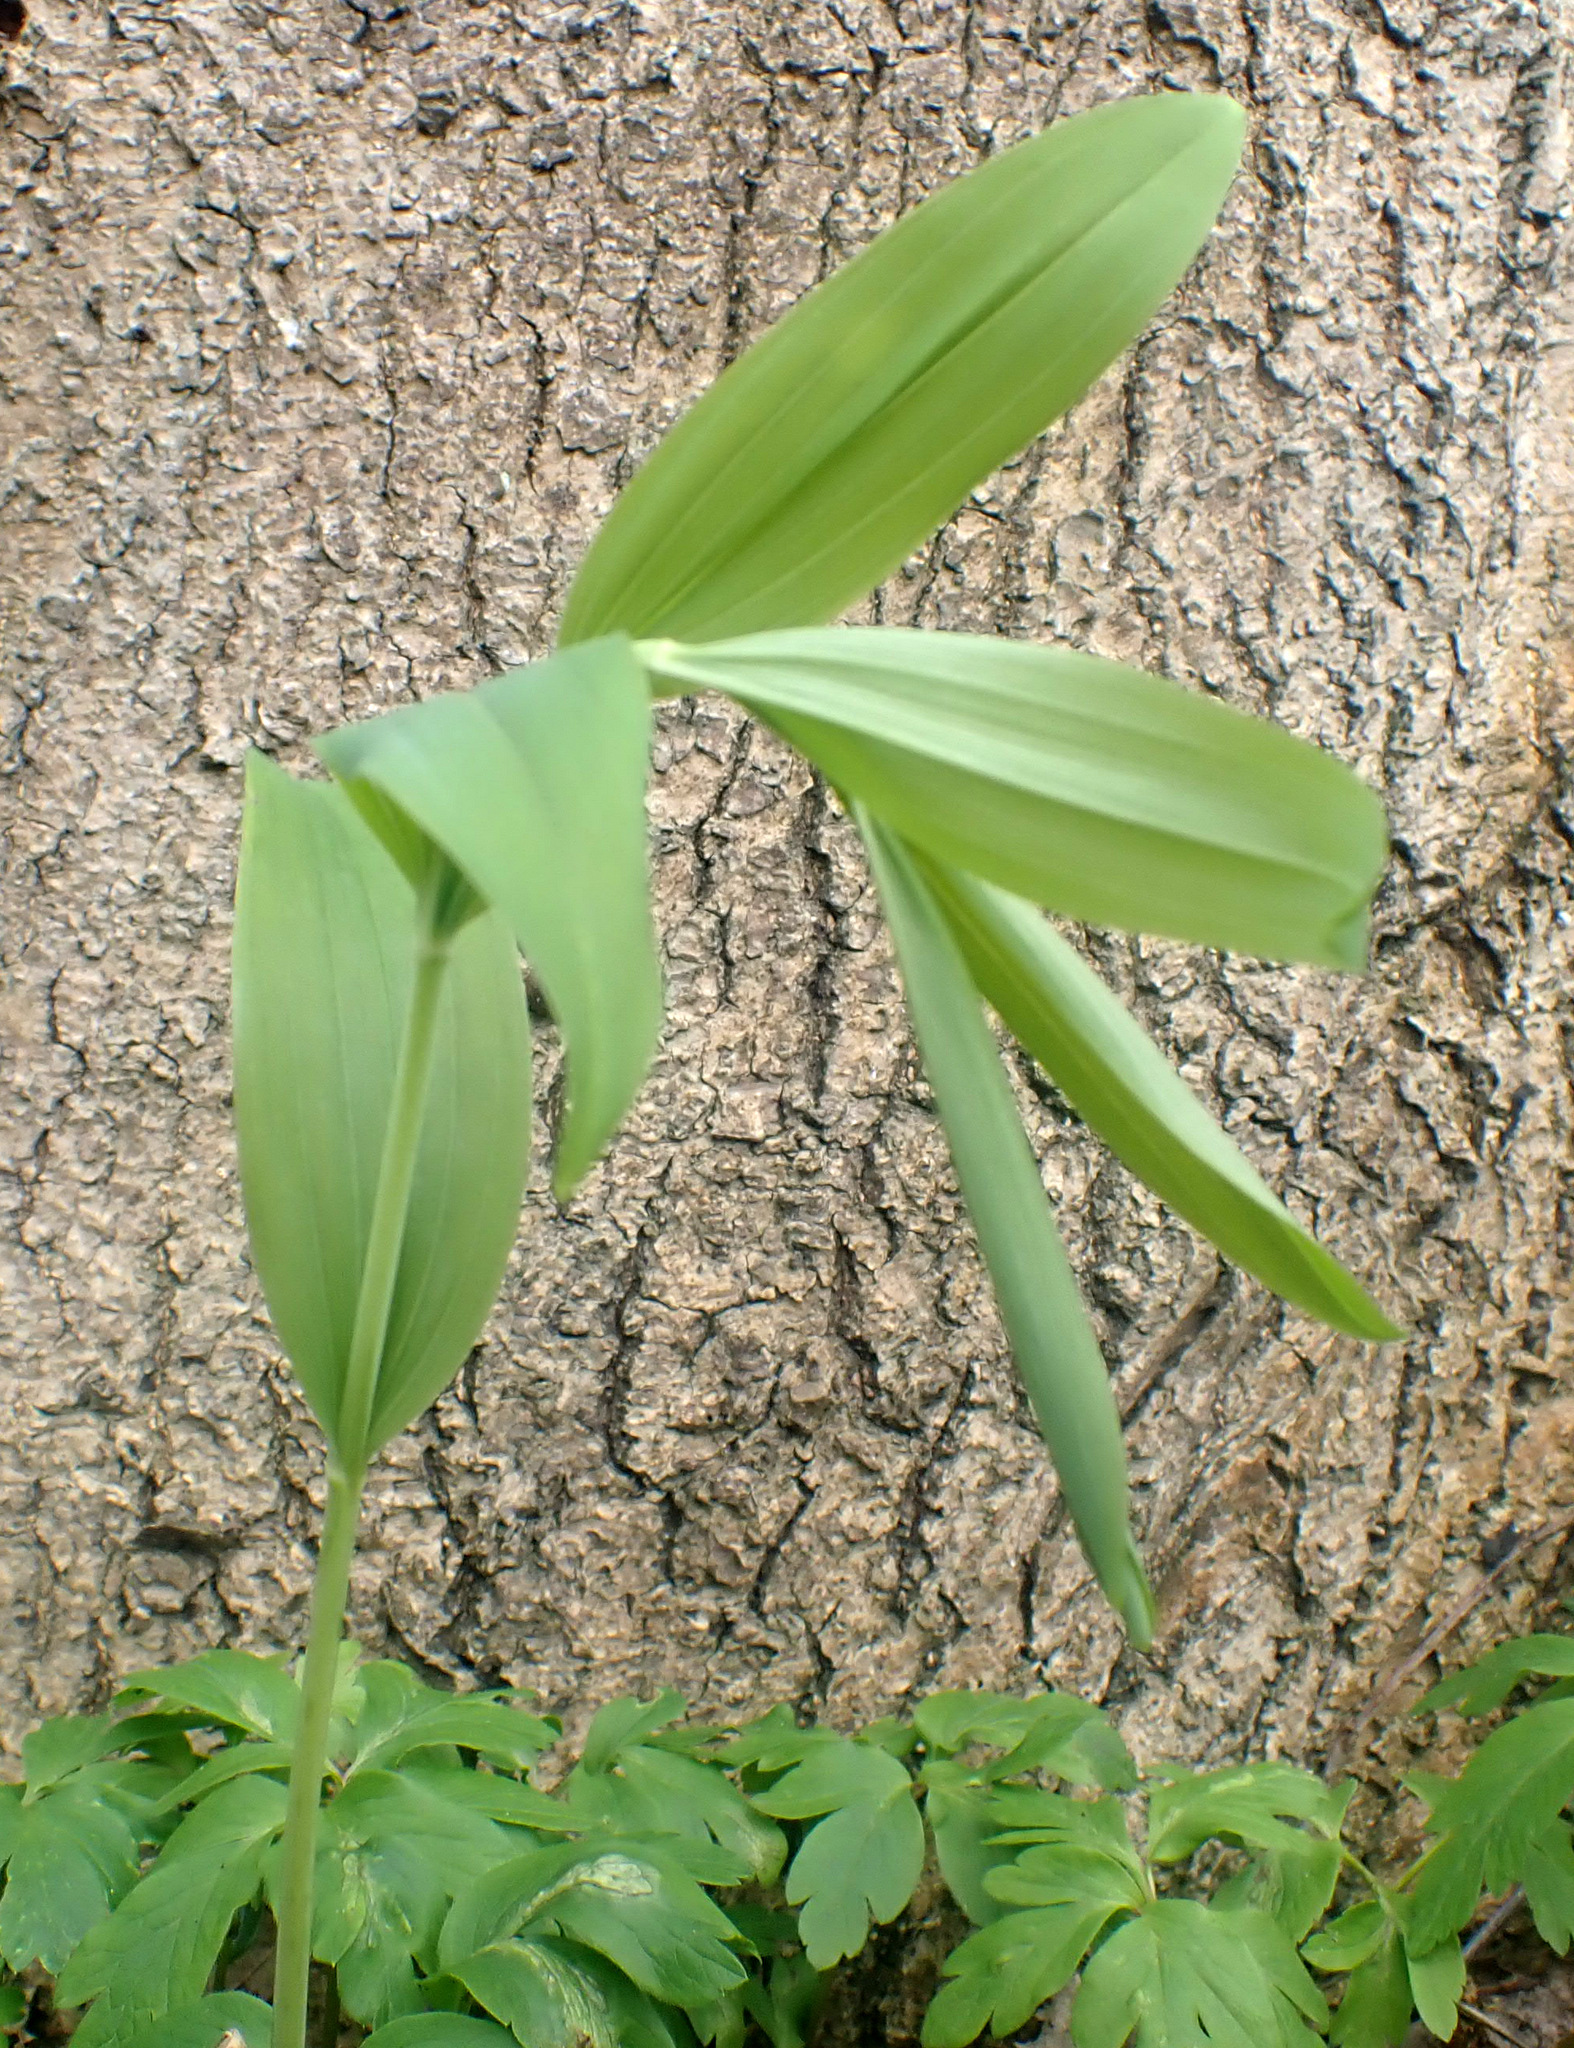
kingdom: Plantae
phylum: Tracheophyta
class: Liliopsida
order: Asparagales
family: Asparagaceae
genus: Polygonatum
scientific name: Polygonatum multiflorum
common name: Solomon's-seal
